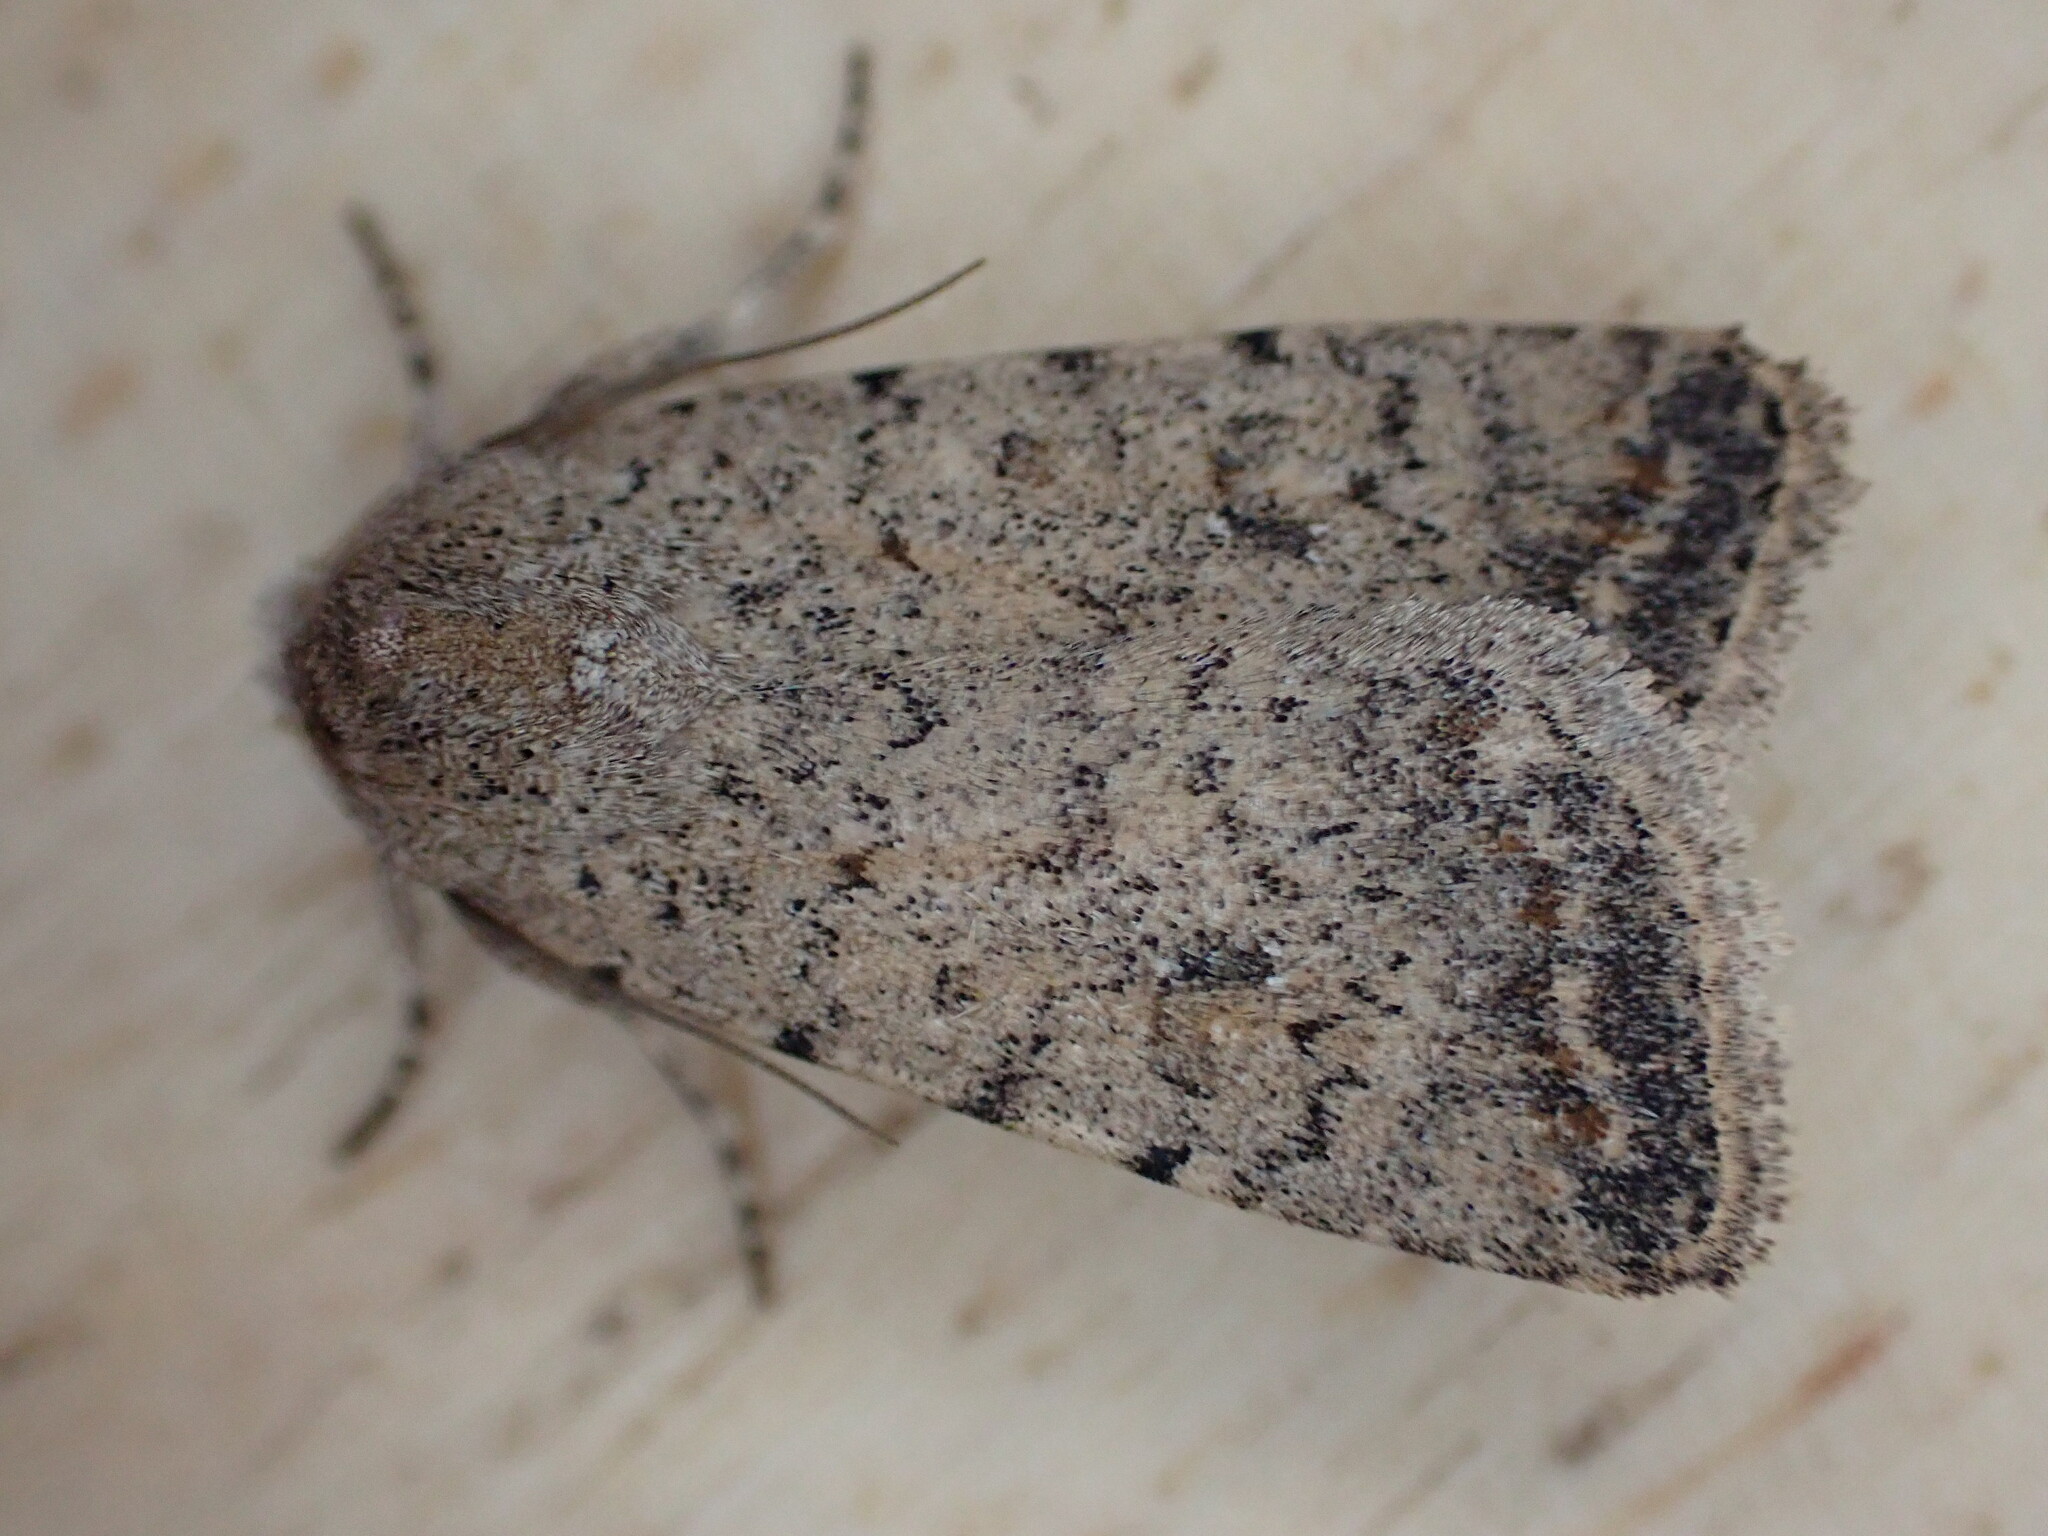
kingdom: Animalia
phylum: Arthropoda
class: Insecta
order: Lepidoptera
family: Noctuidae
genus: Caradrina
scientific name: Caradrina clavipalpis
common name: Pale mottled willow
